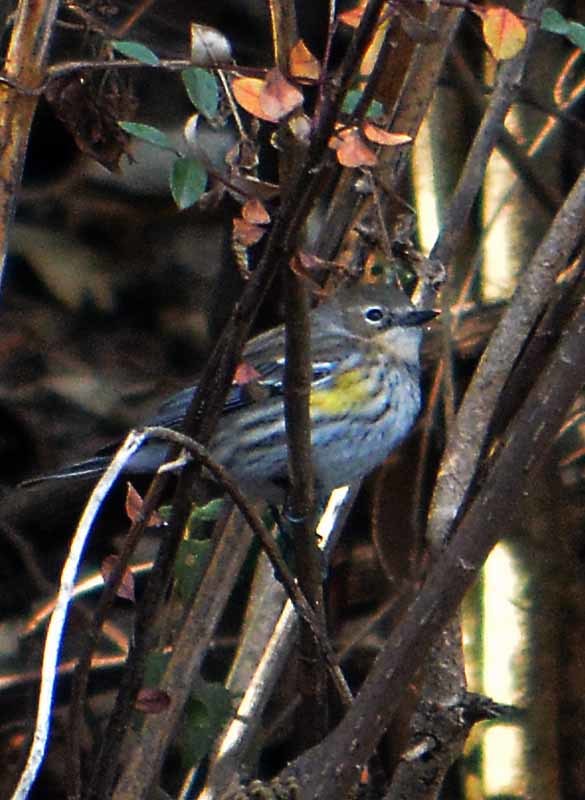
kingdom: Animalia
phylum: Chordata
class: Aves
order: Passeriformes
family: Parulidae
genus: Setophaga
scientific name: Setophaga coronata
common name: Myrtle warbler
